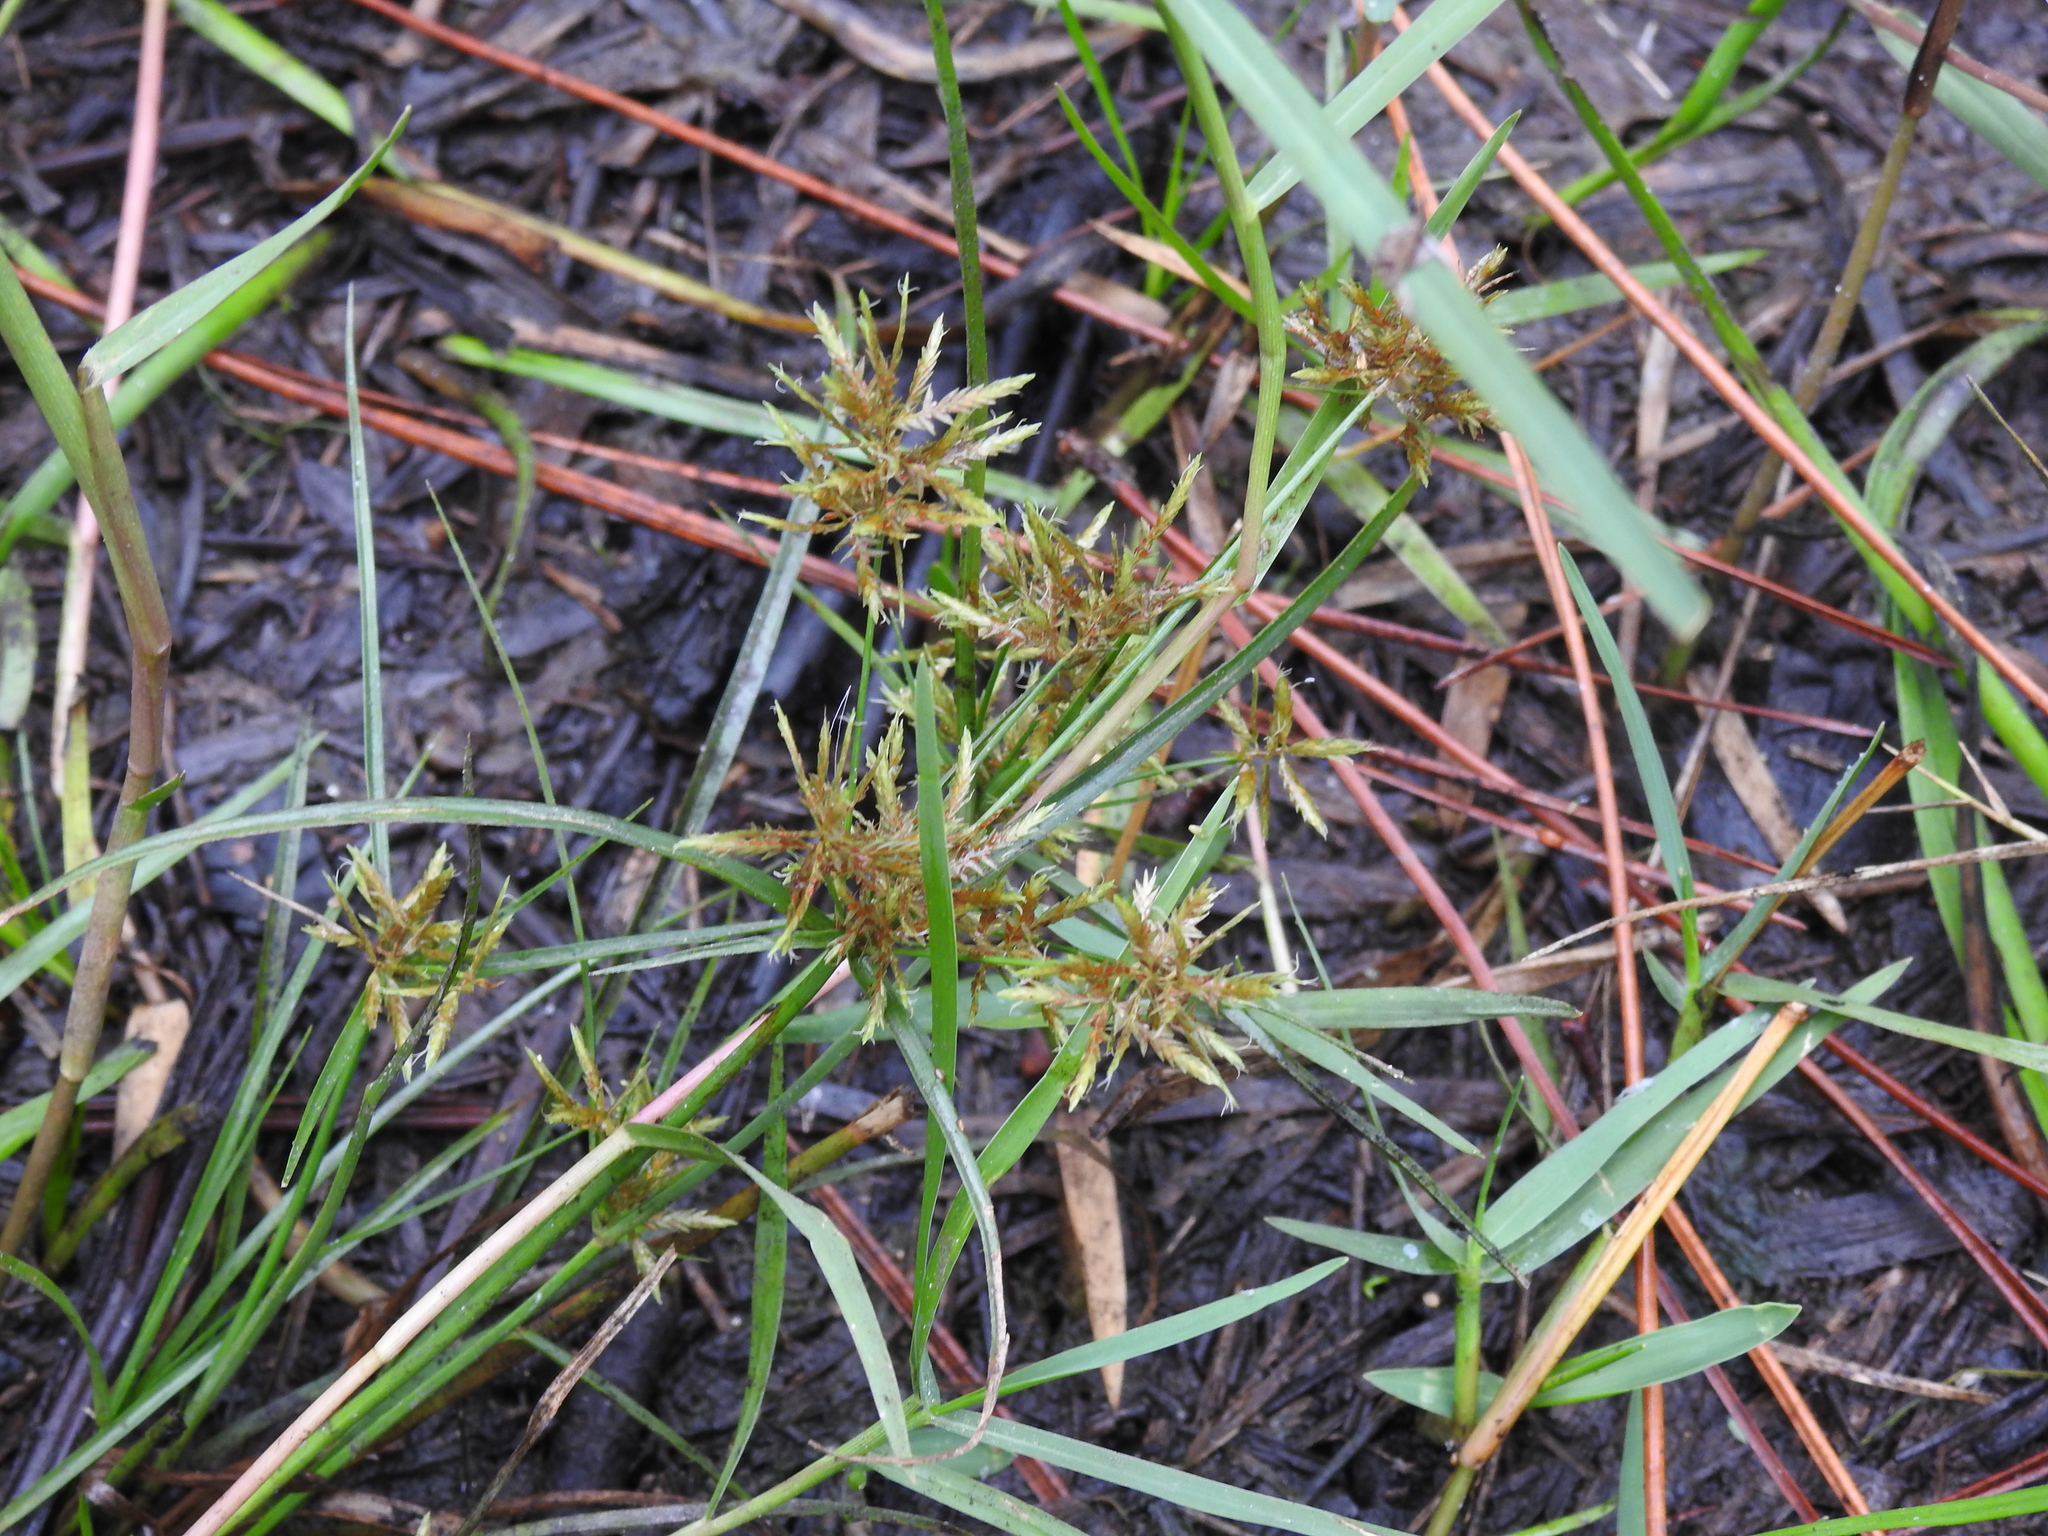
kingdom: Plantae
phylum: Tracheophyta
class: Liliopsida
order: Poales
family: Cyperaceae
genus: Cyperus
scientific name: Cyperus polystachyos
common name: Bunchy flat sedge
